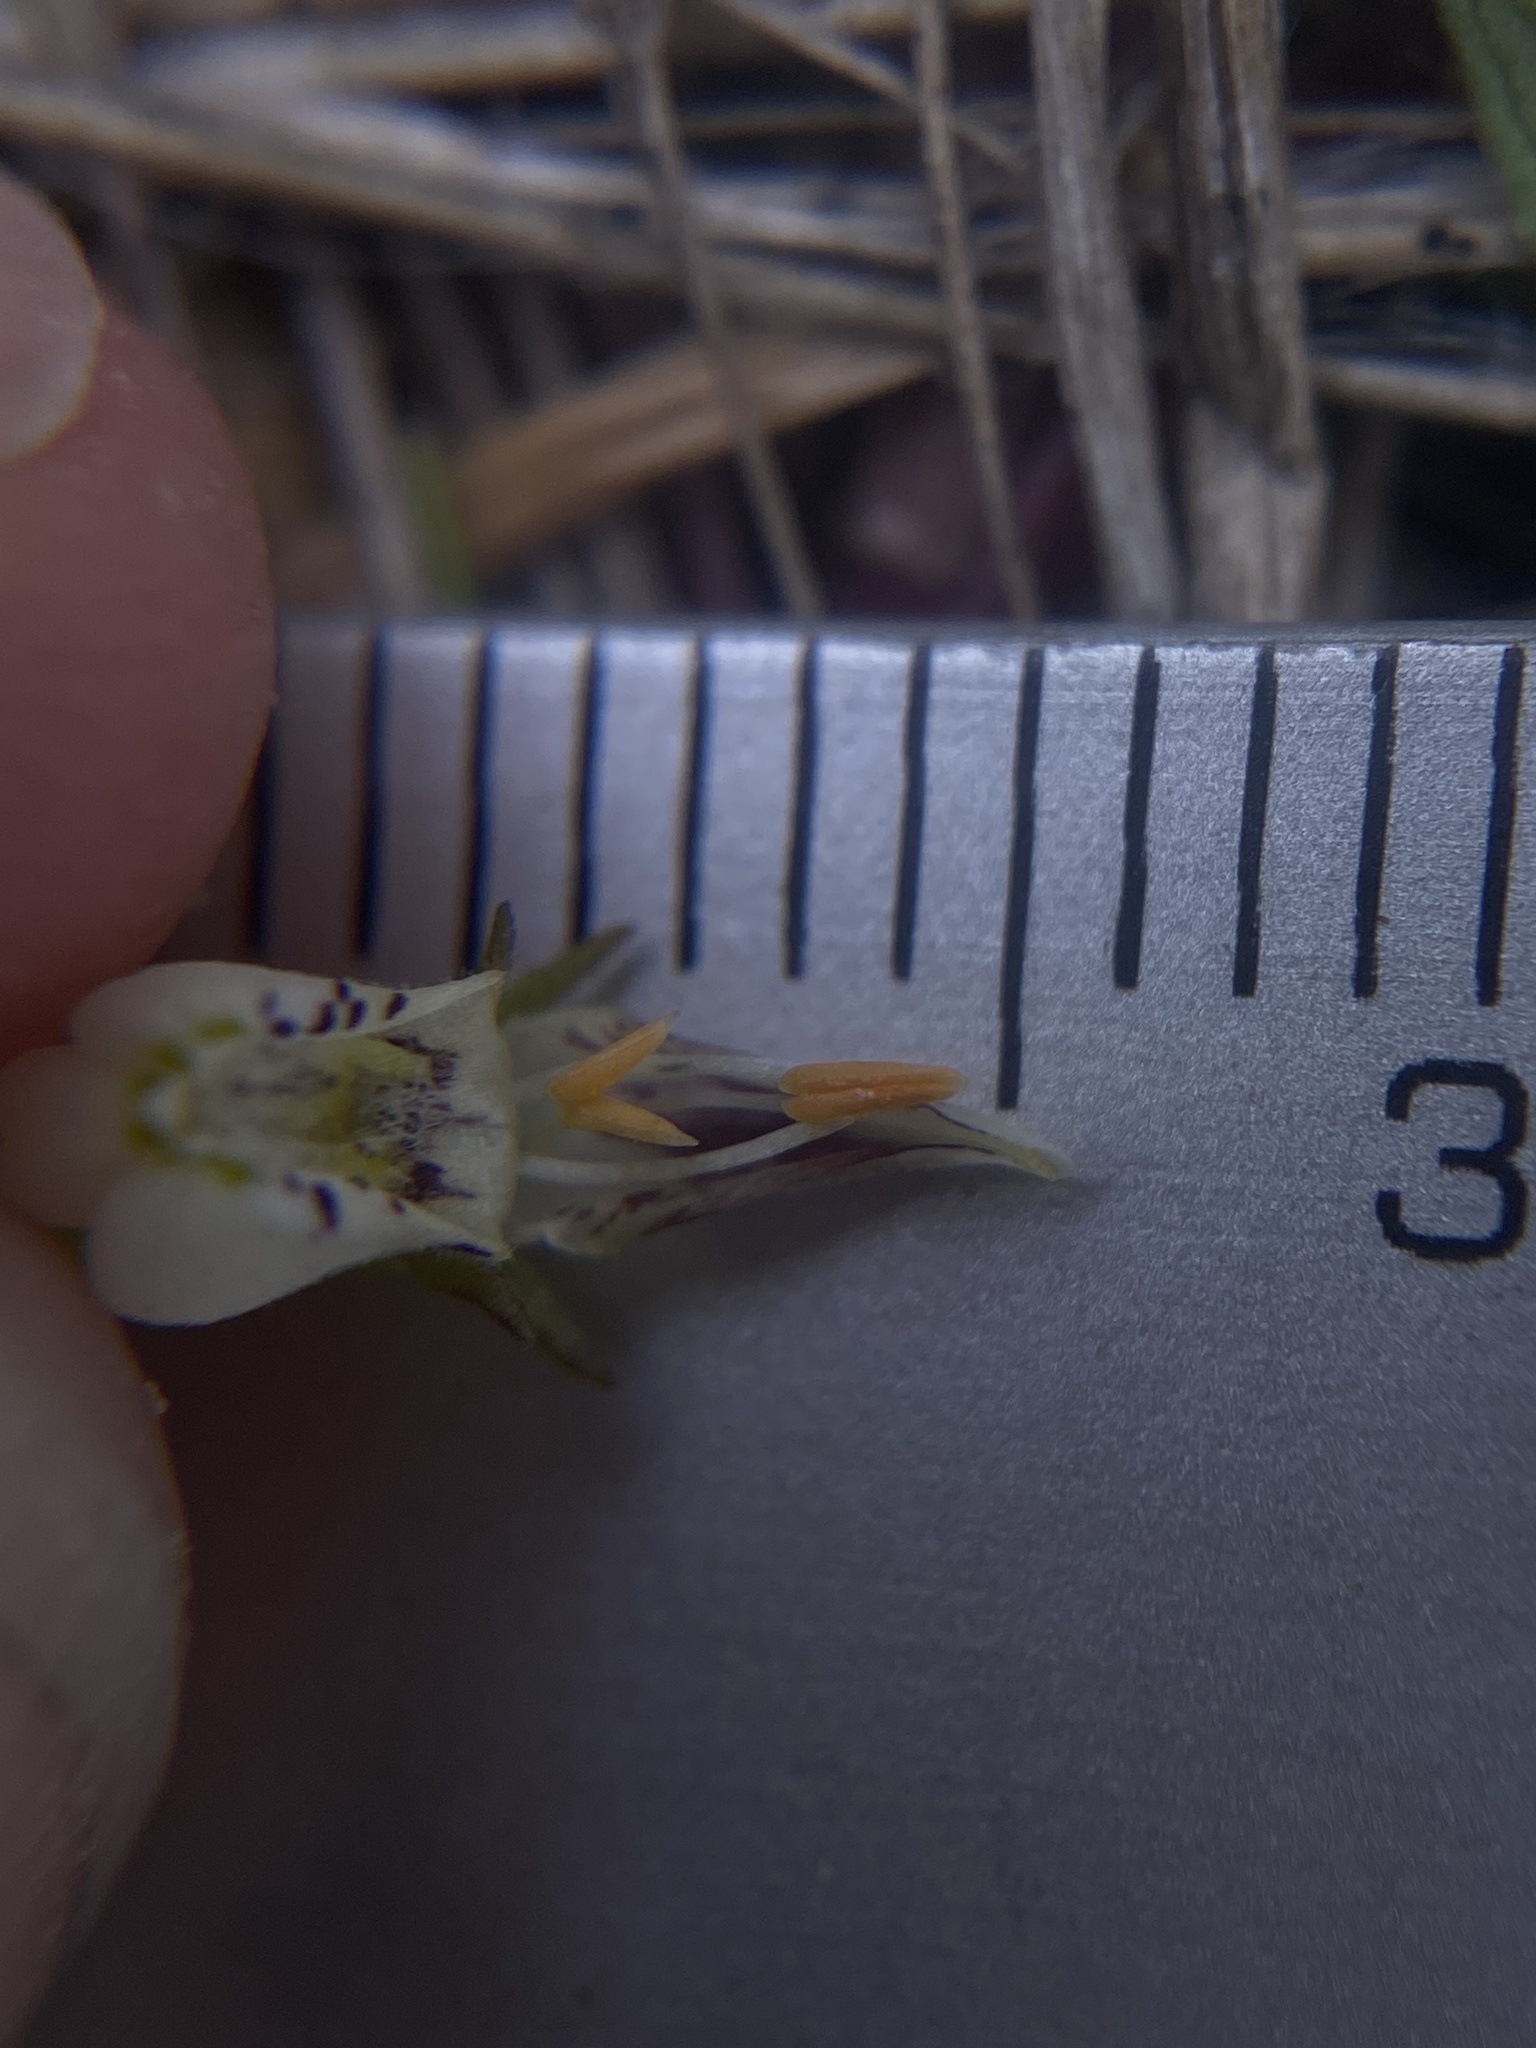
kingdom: Plantae
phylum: Tracheophyta
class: Magnoliopsida
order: Lamiales
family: Orobanchaceae
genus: Triphysaria
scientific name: Triphysaria versicolor
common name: Bearded false owl-clover
